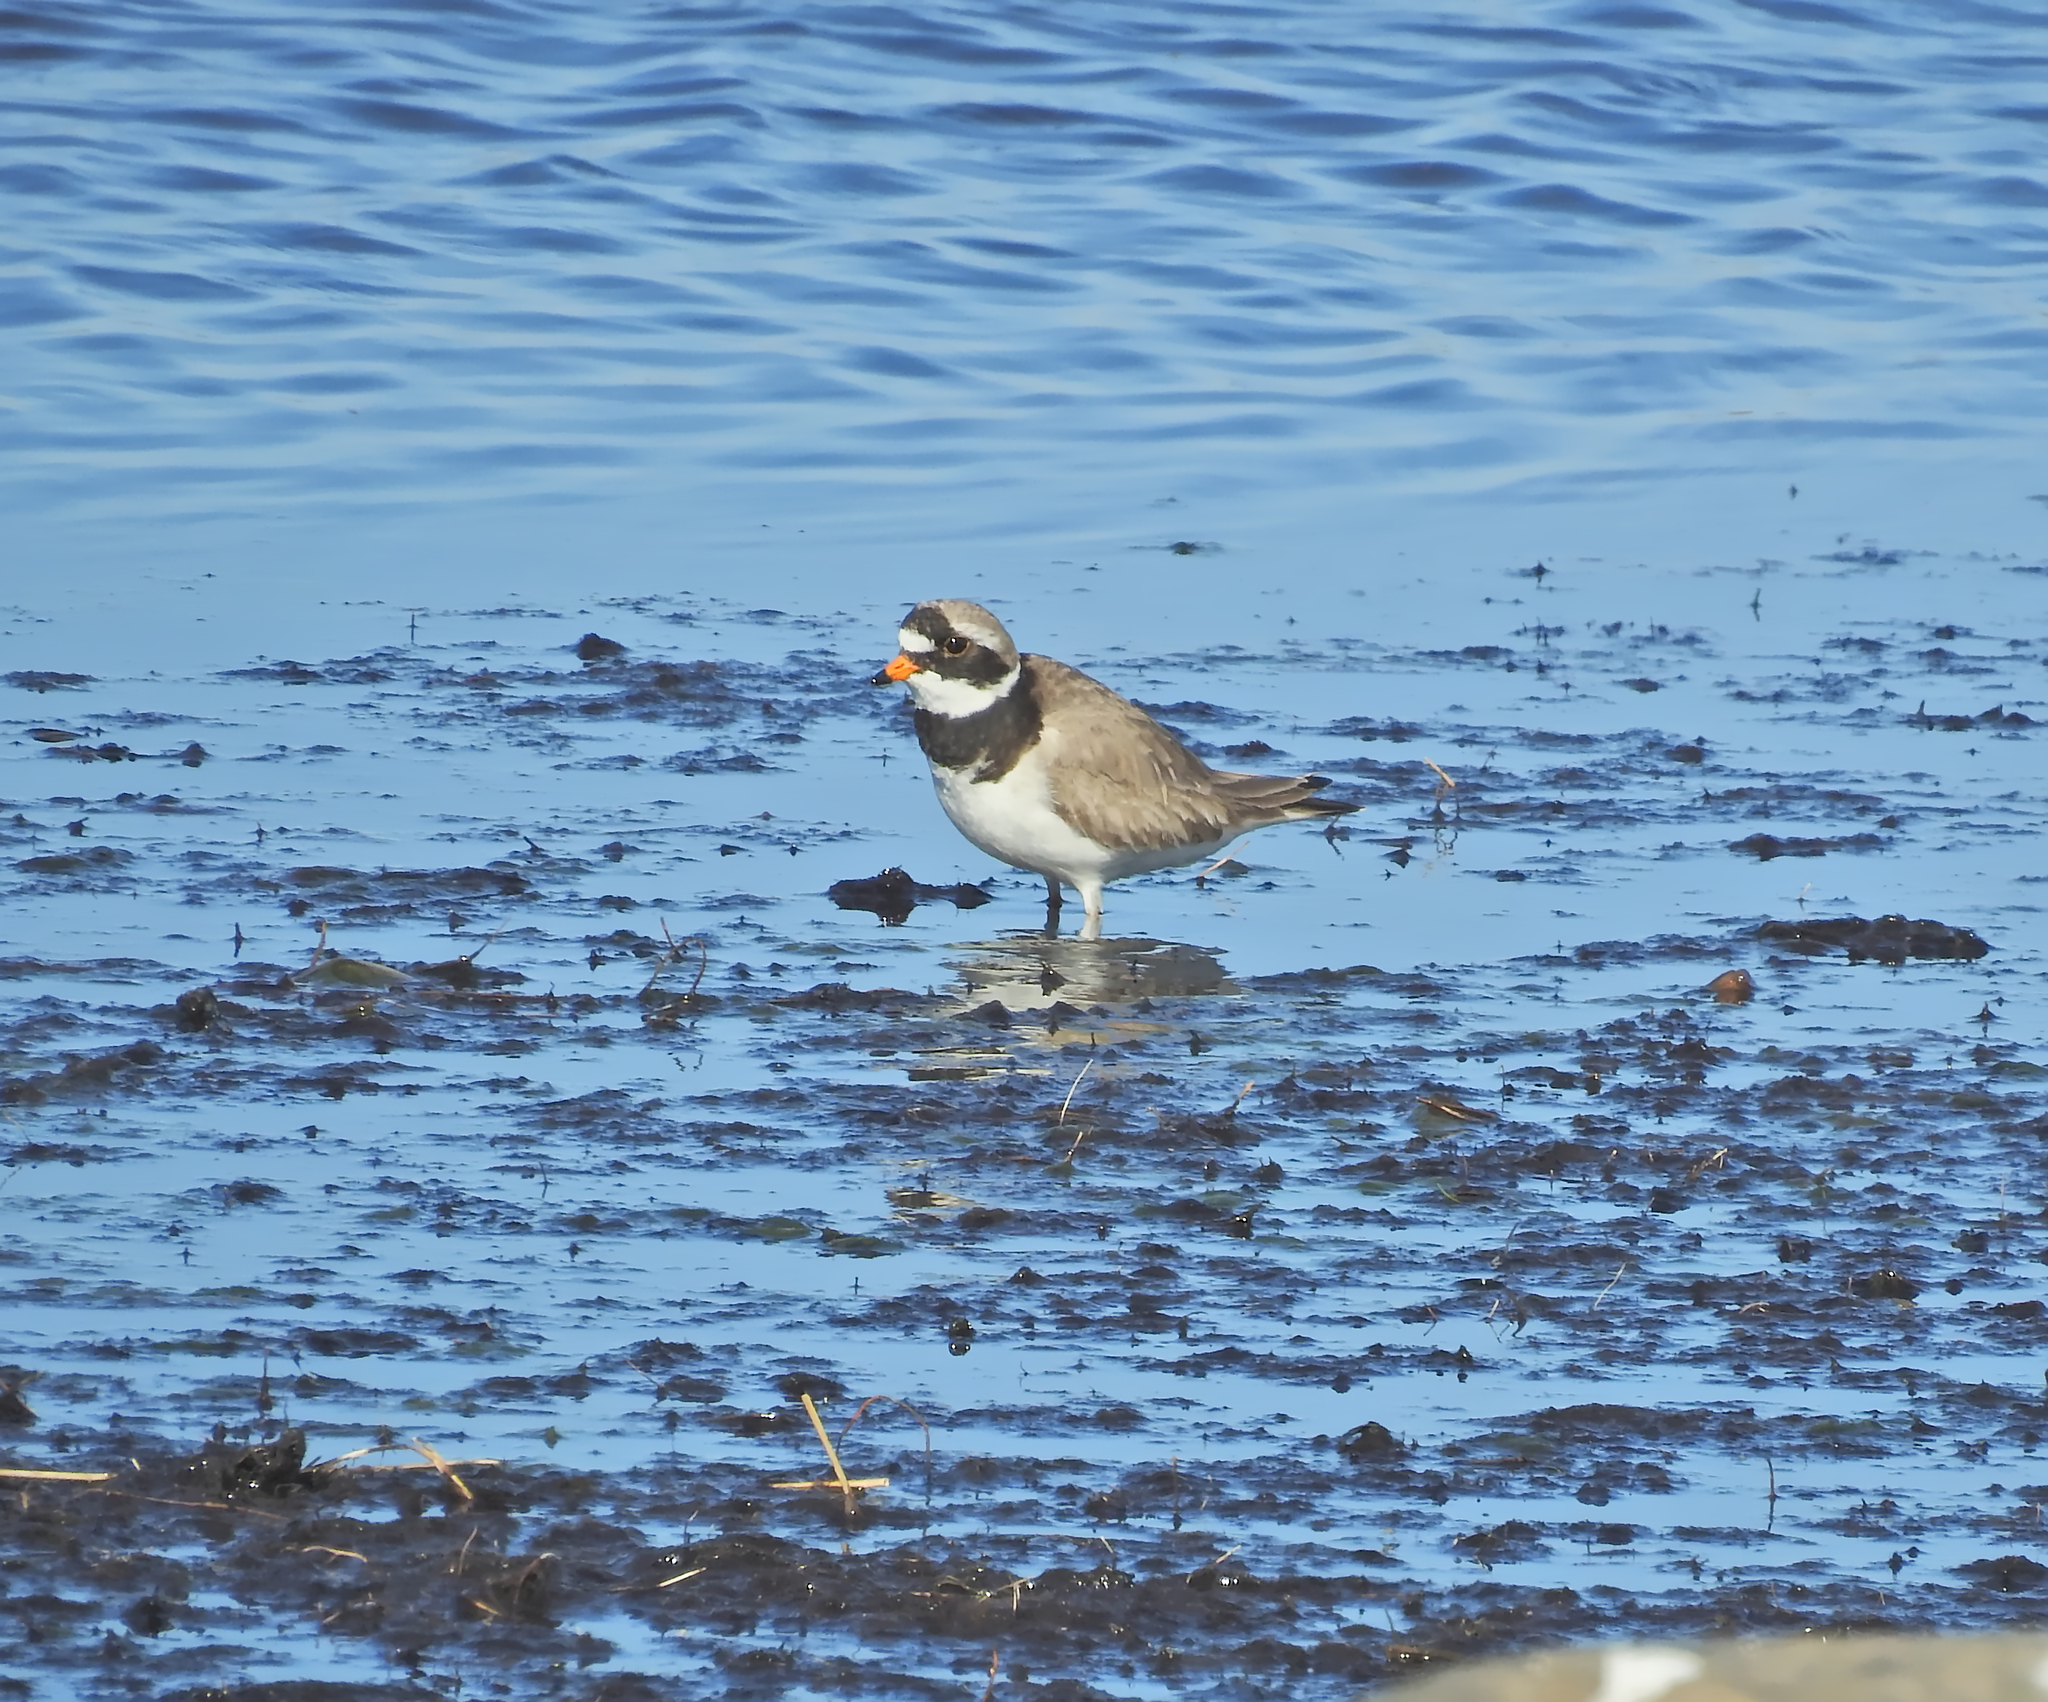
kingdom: Animalia
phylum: Chordata
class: Aves
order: Charadriiformes
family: Charadriidae
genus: Charadrius
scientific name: Charadrius hiaticula
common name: Common ringed plover
